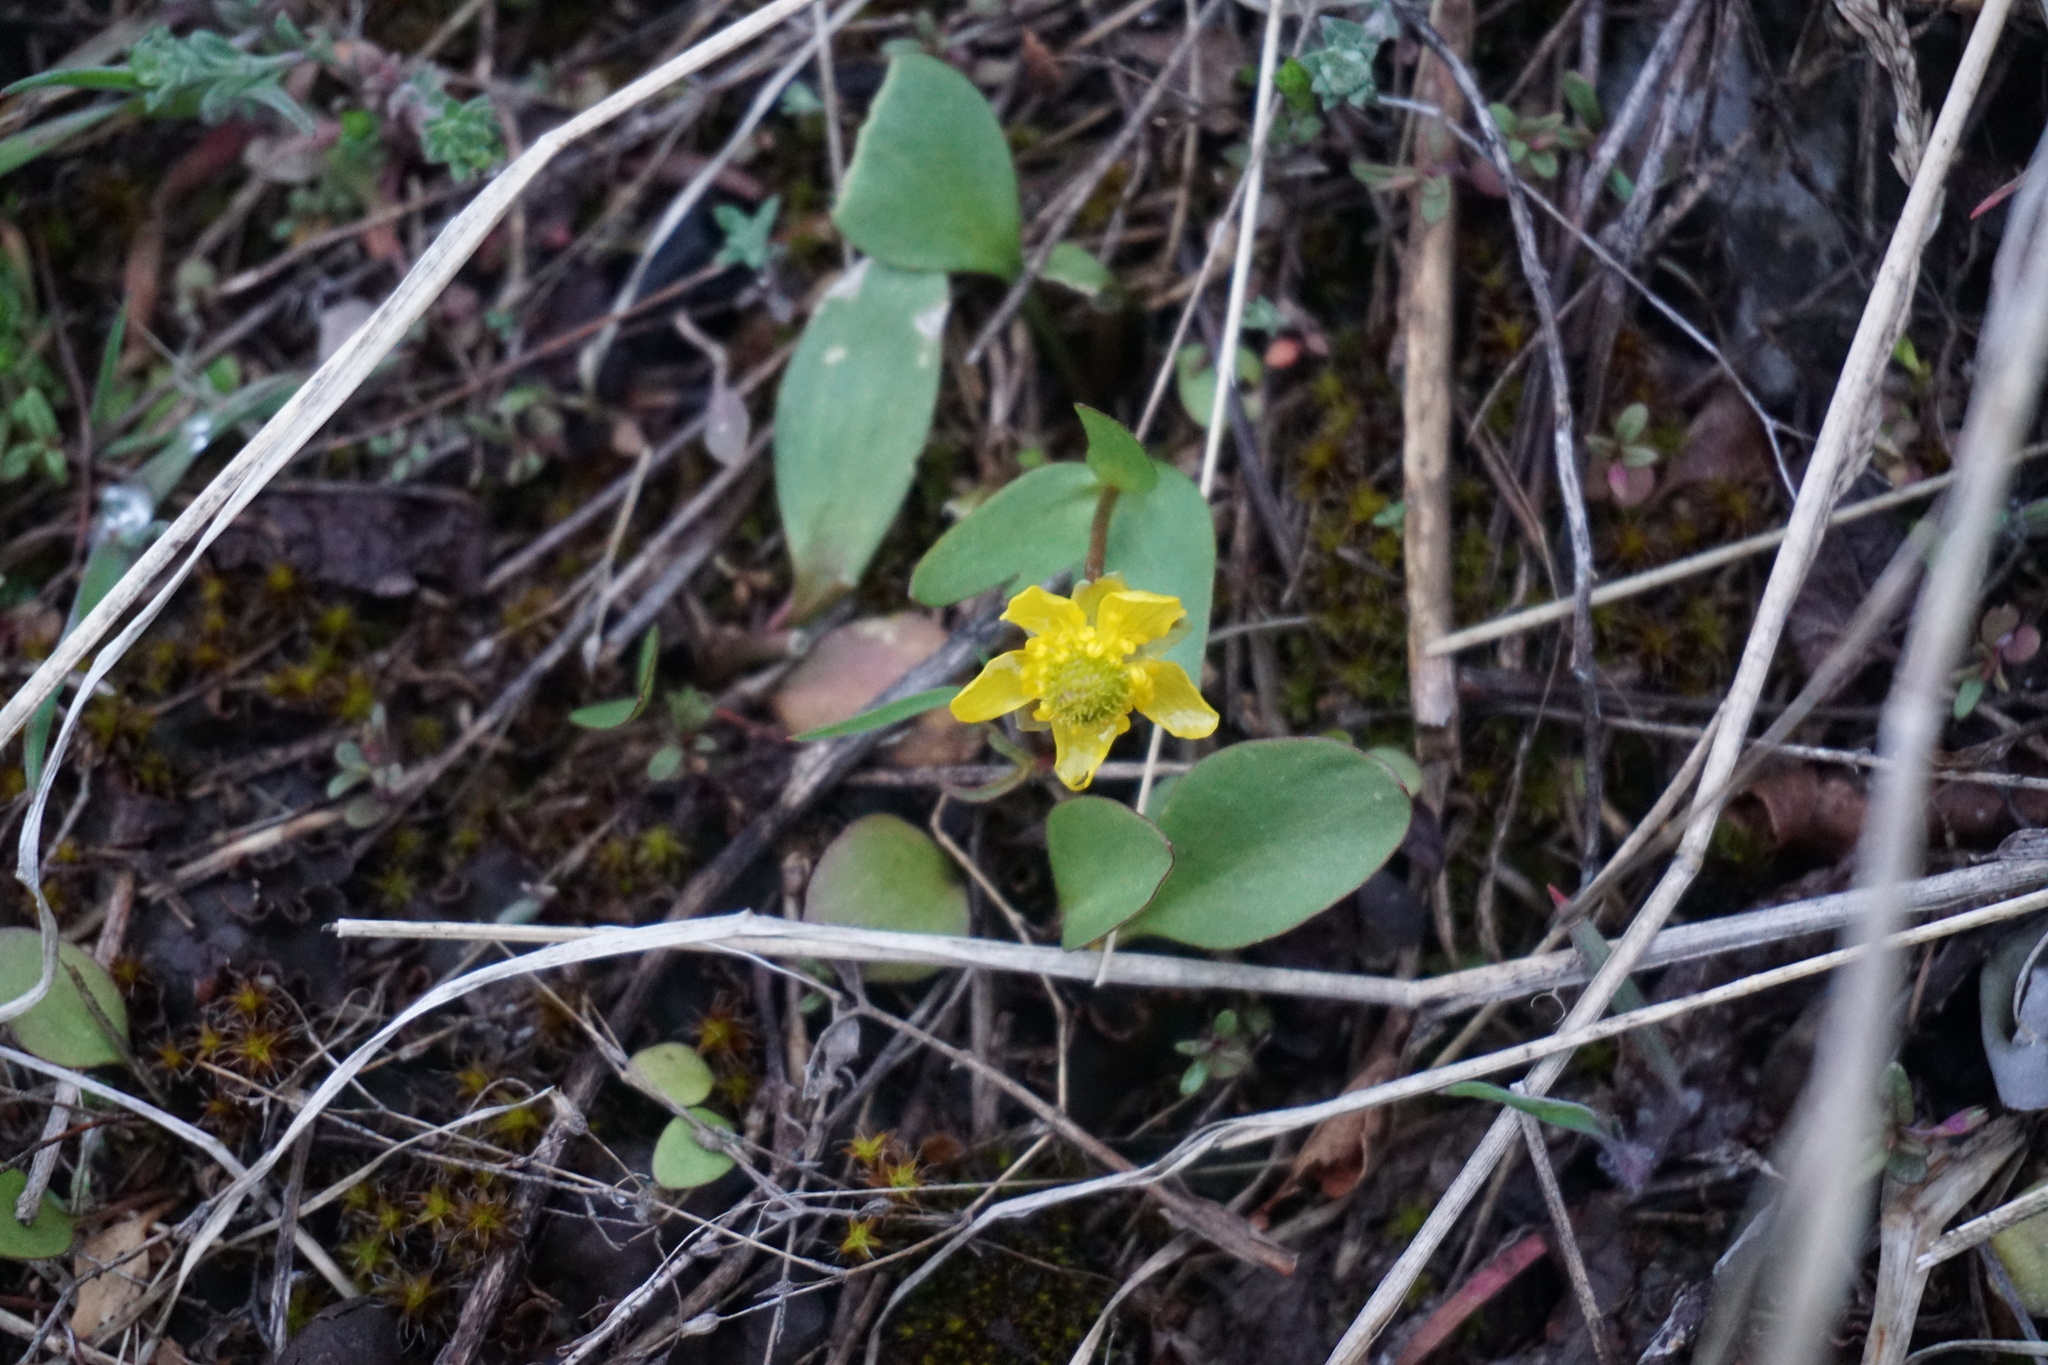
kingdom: Plantae
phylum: Tracheophyta
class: Magnoliopsida
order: Ranunculales
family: Ranunculaceae
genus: Ranunculus
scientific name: Ranunculus glaberrimus
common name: Sagebrush buttercup
